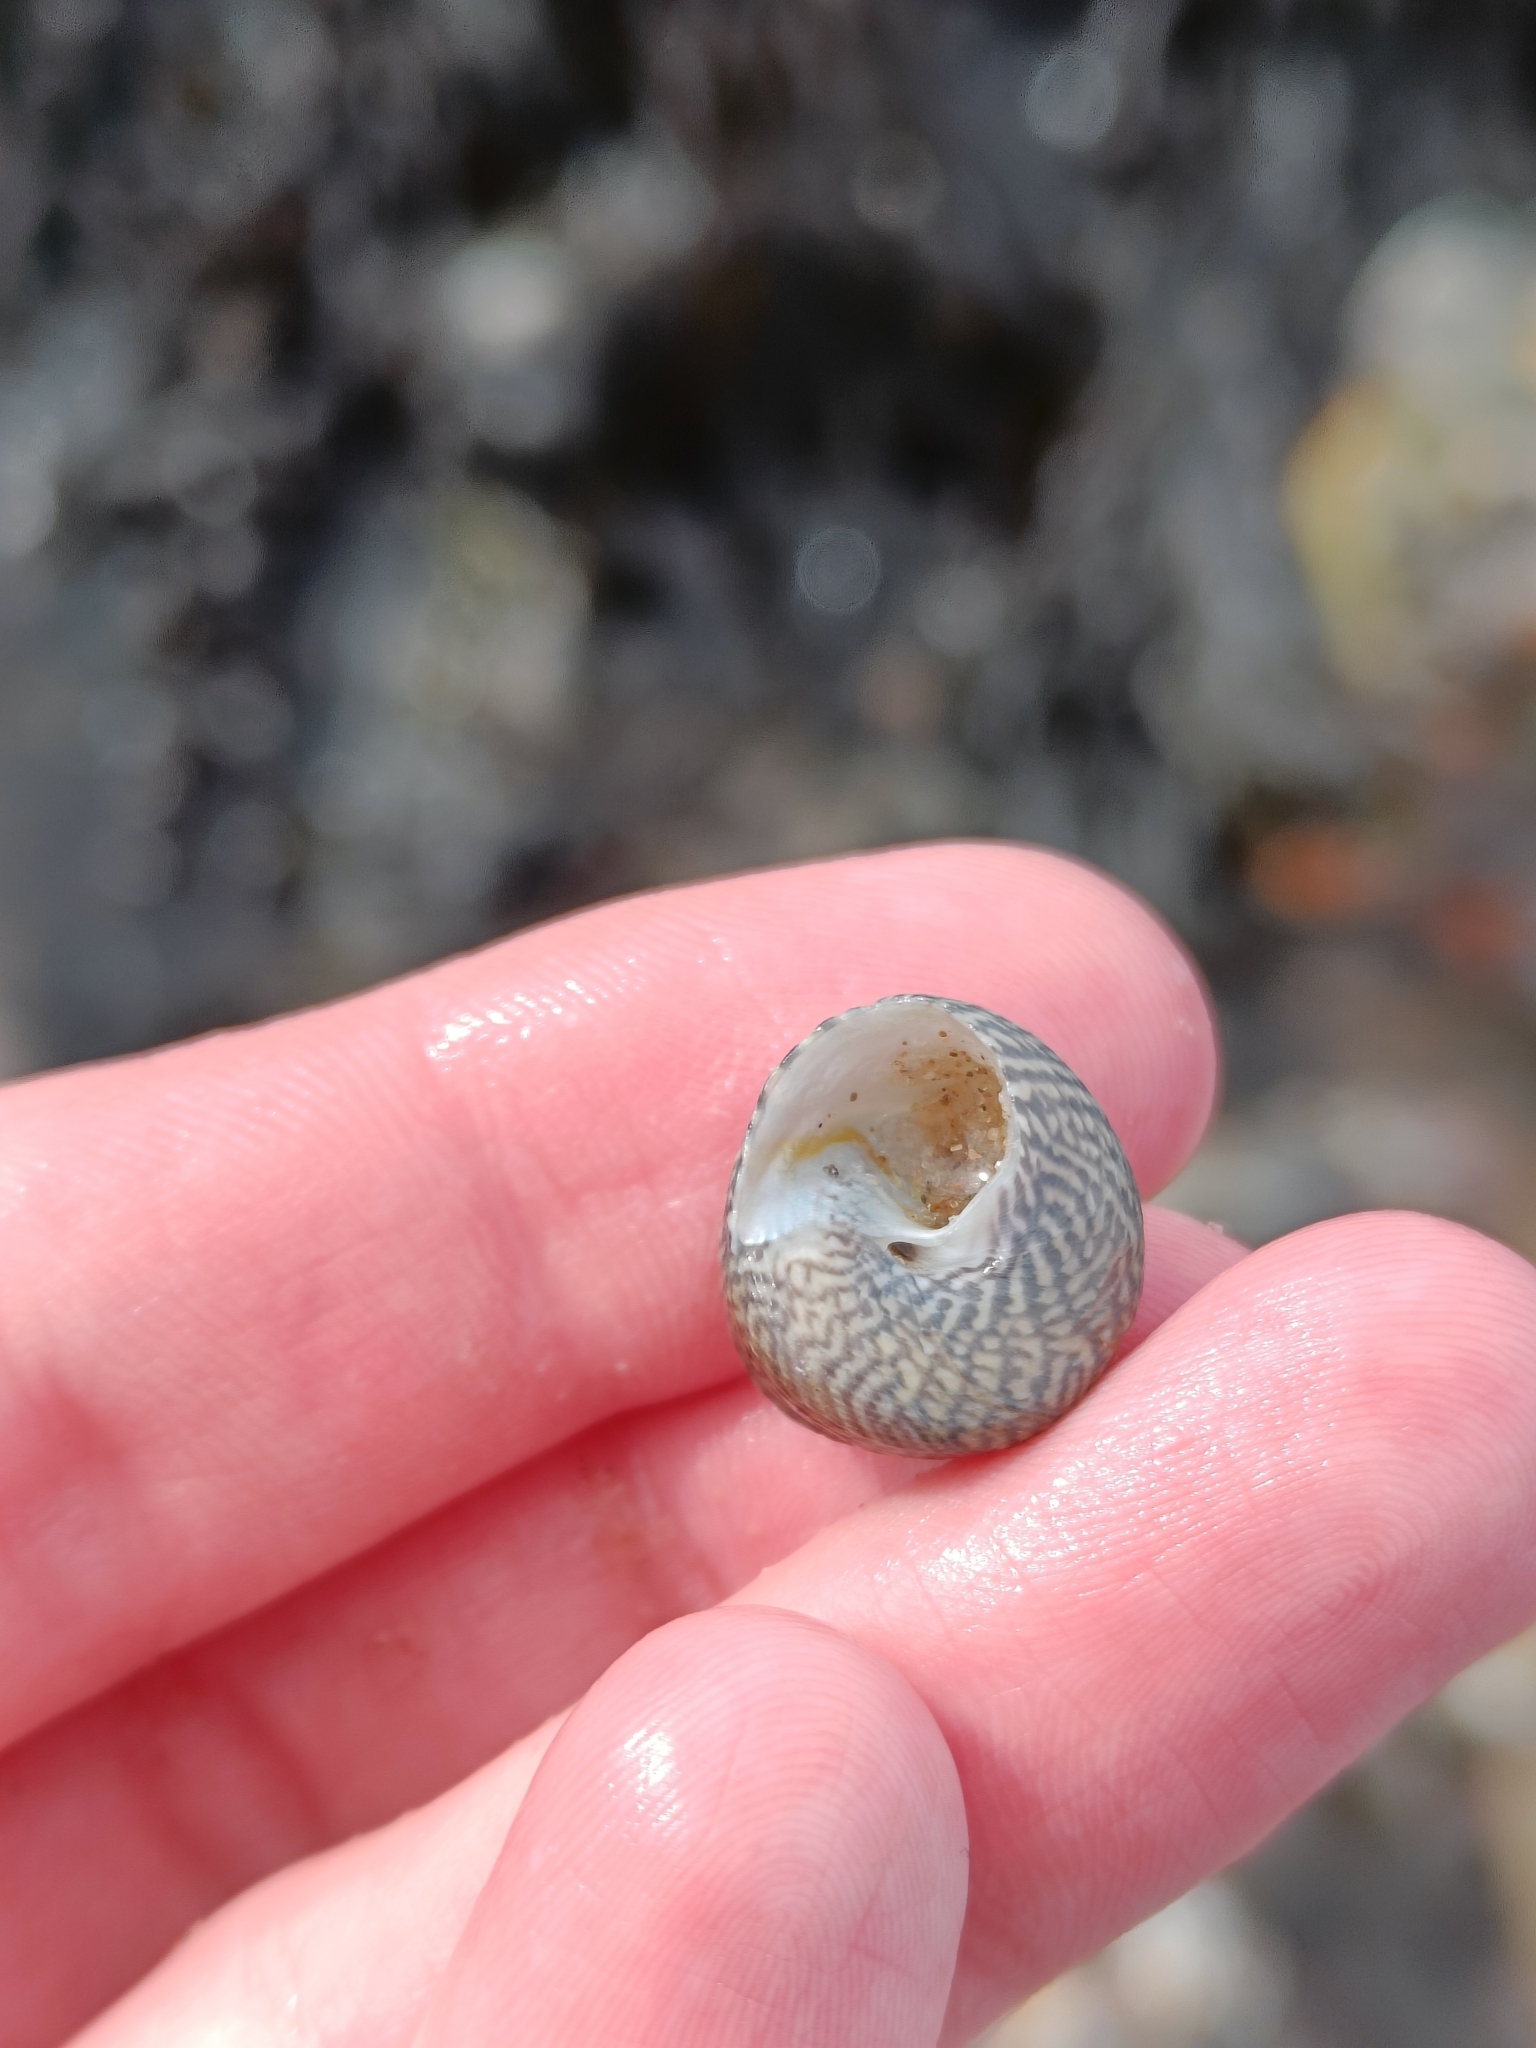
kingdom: Animalia
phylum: Mollusca
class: Gastropoda
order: Trochida
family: Trochidae
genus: Steromphala
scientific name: Steromphala cineraria
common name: Grey top shell
